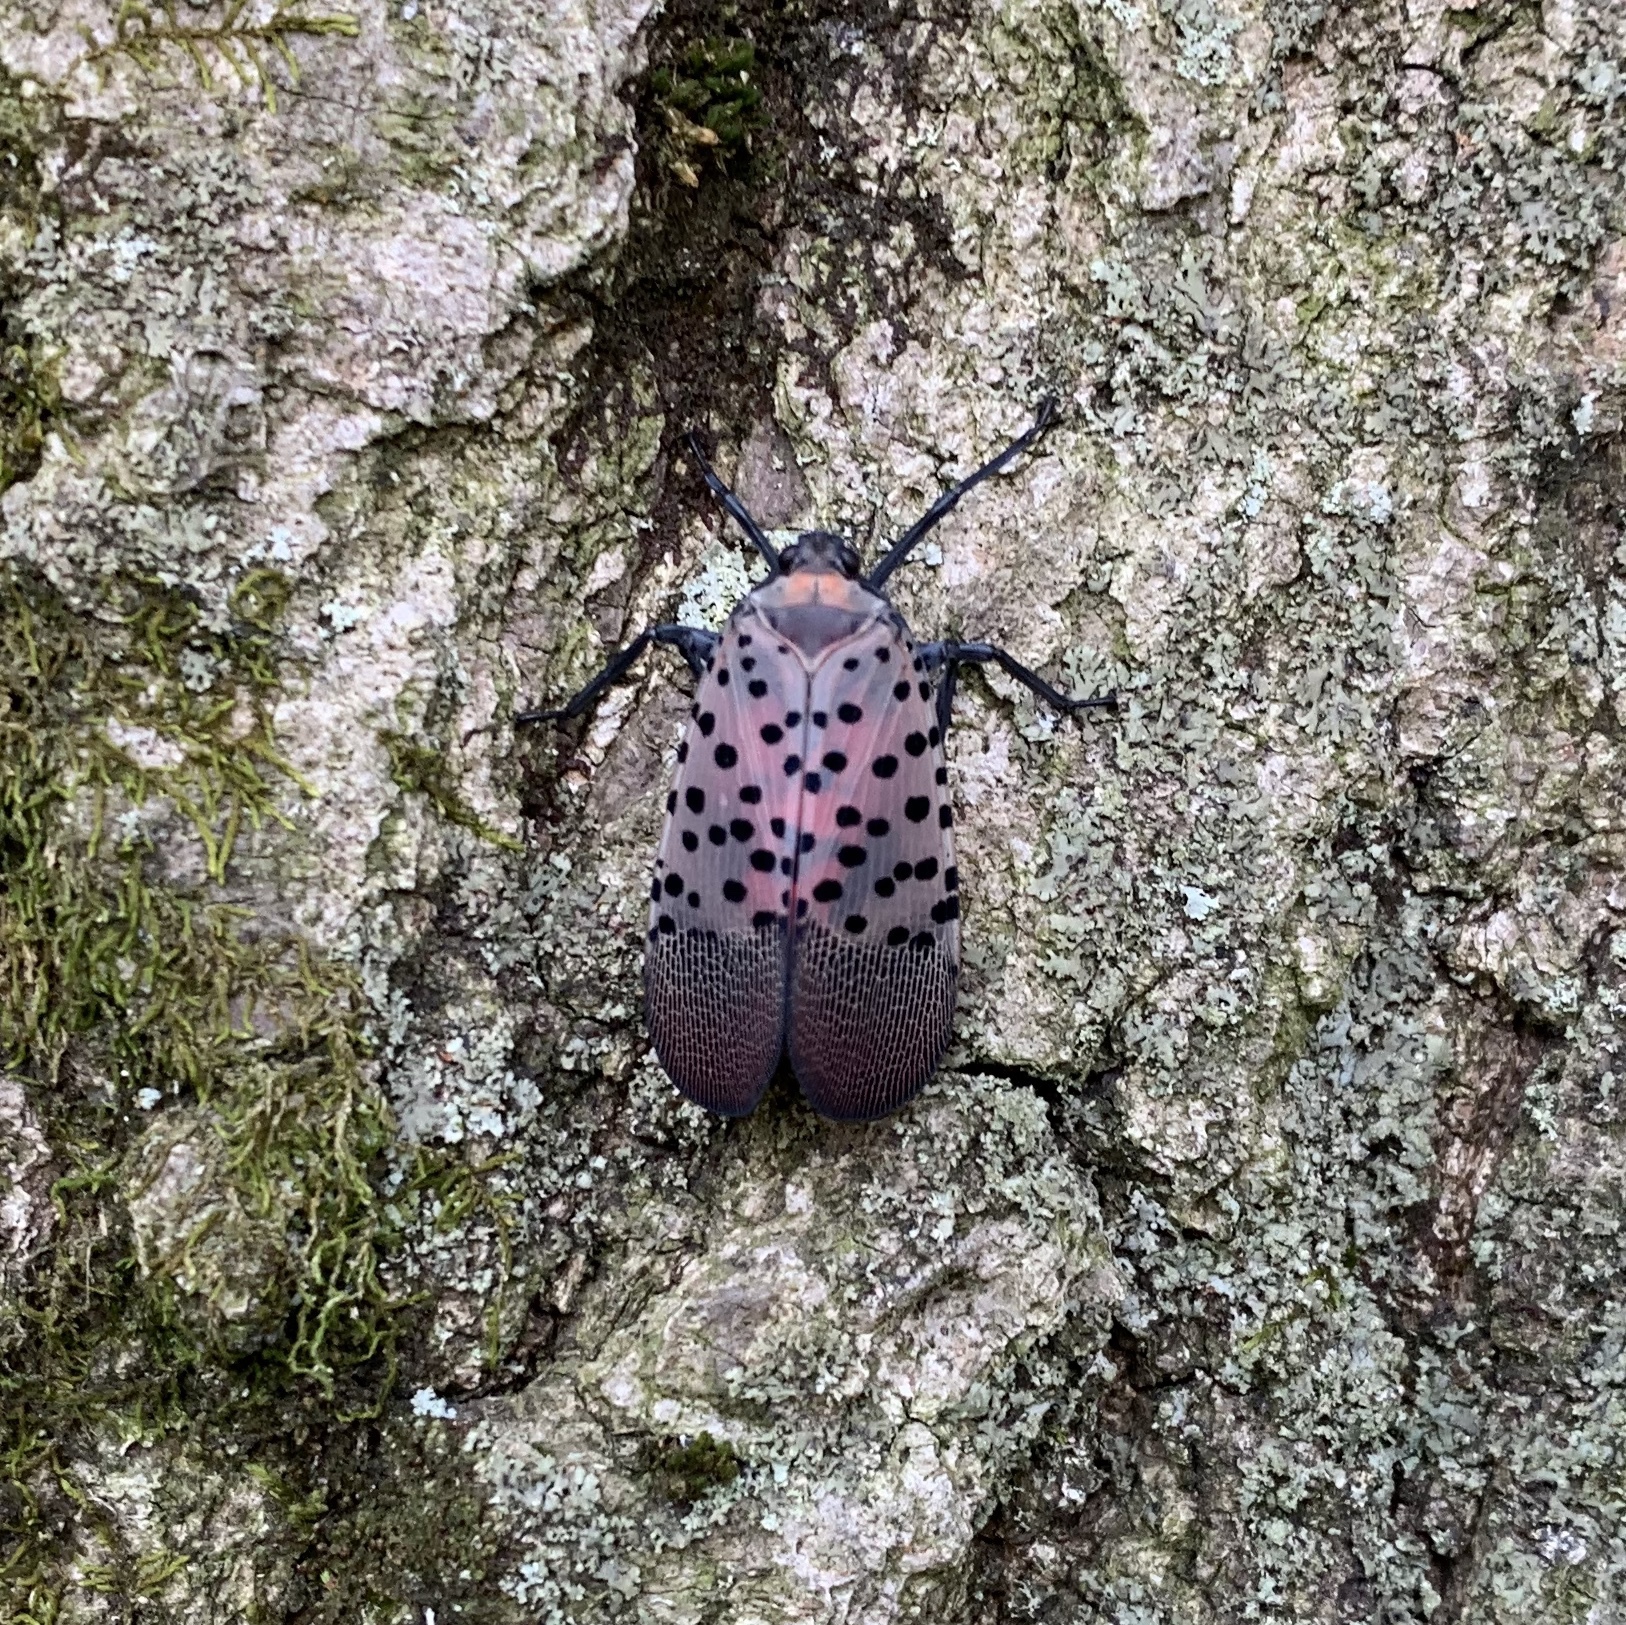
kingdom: Animalia
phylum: Arthropoda
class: Insecta
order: Hemiptera
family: Fulgoridae
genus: Lycorma
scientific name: Lycorma delicatula
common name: Spotted lanternfly
